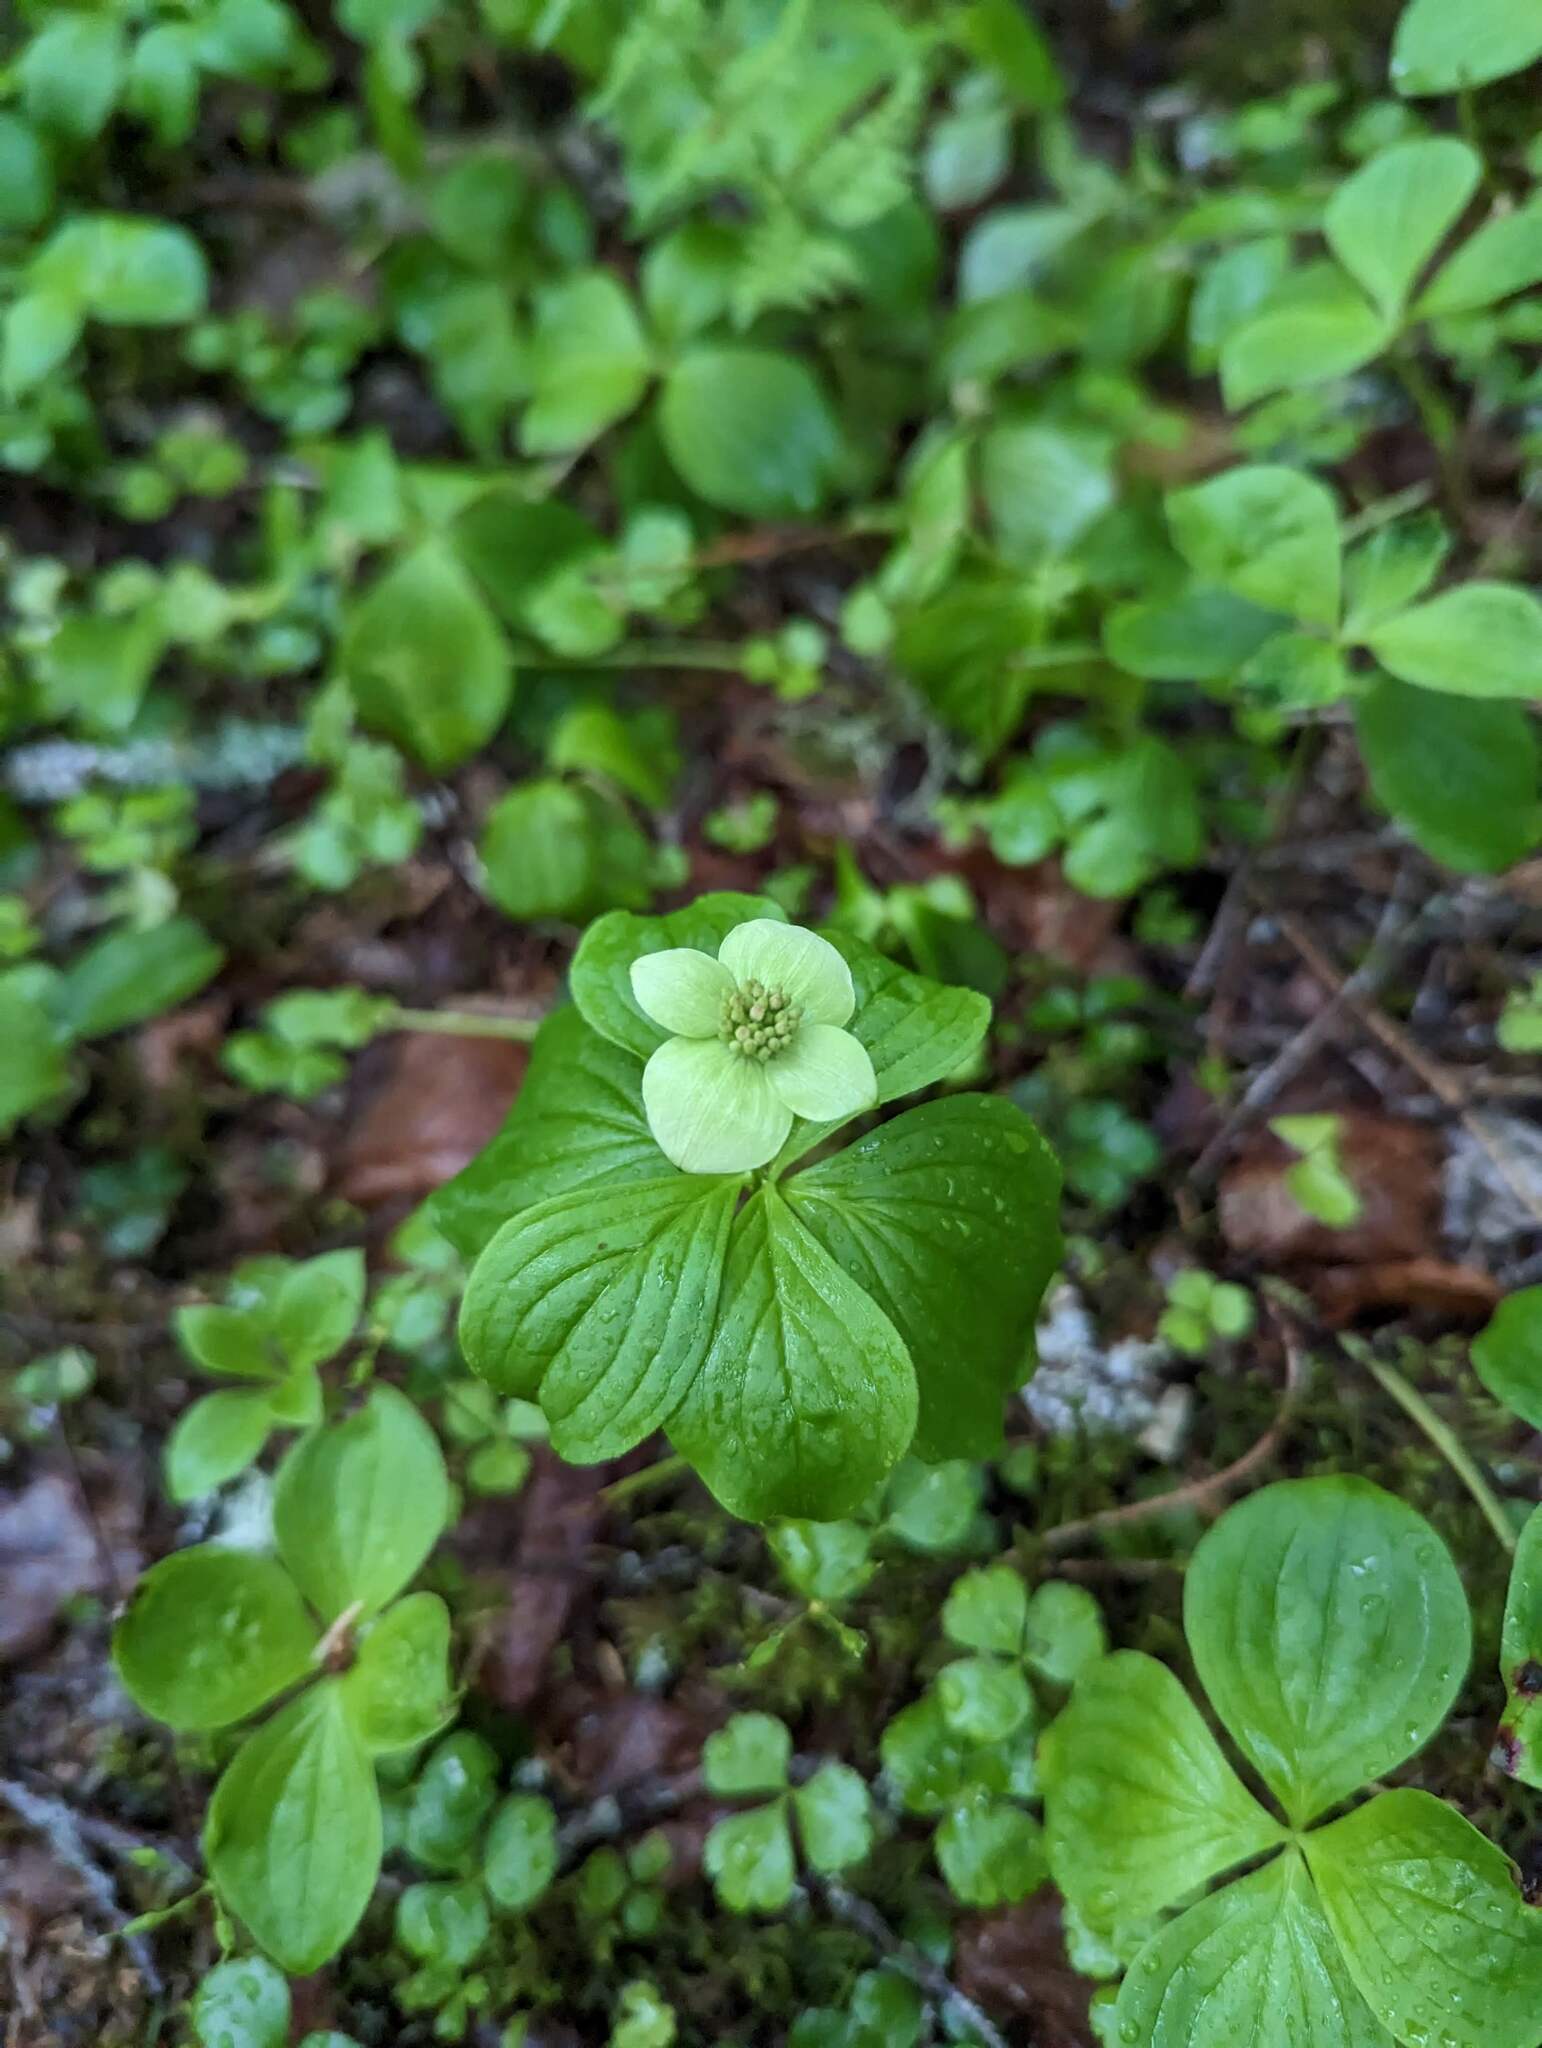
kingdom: Plantae
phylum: Tracheophyta
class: Magnoliopsida
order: Cornales
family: Cornaceae
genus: Cornus
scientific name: Cornus canadensis
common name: Creeping dogwood
